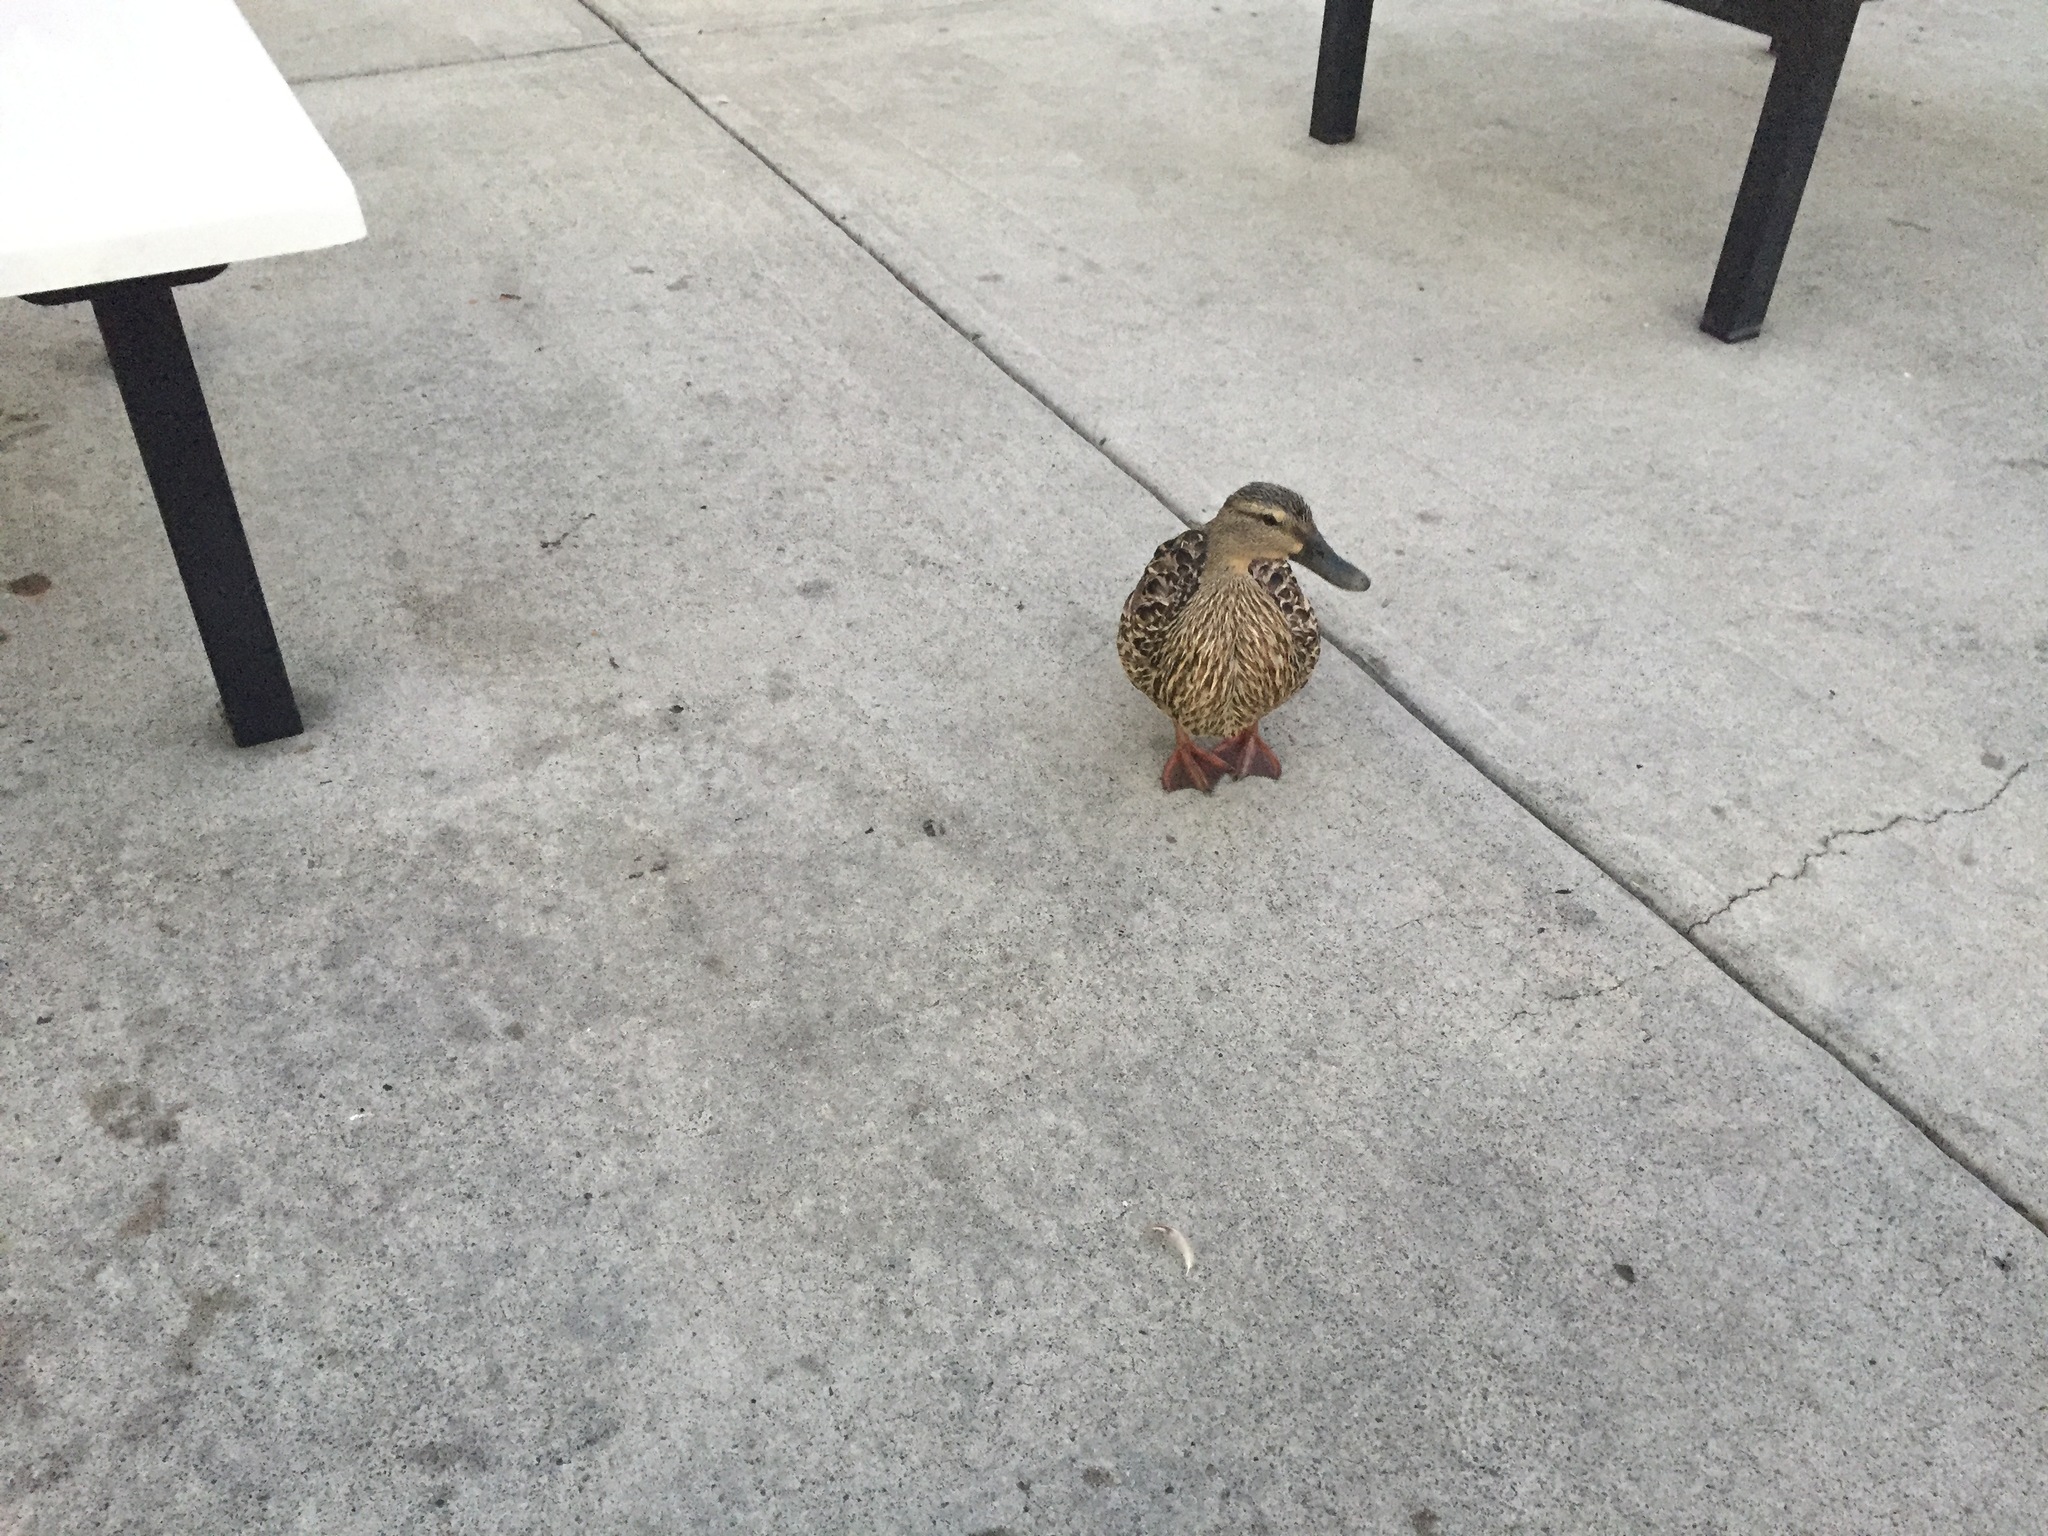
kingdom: Animalia
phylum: Chordata
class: Aves
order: Anseriformes
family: Anatidae
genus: Anas
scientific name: Anas platyrhynchos
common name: Mallard
